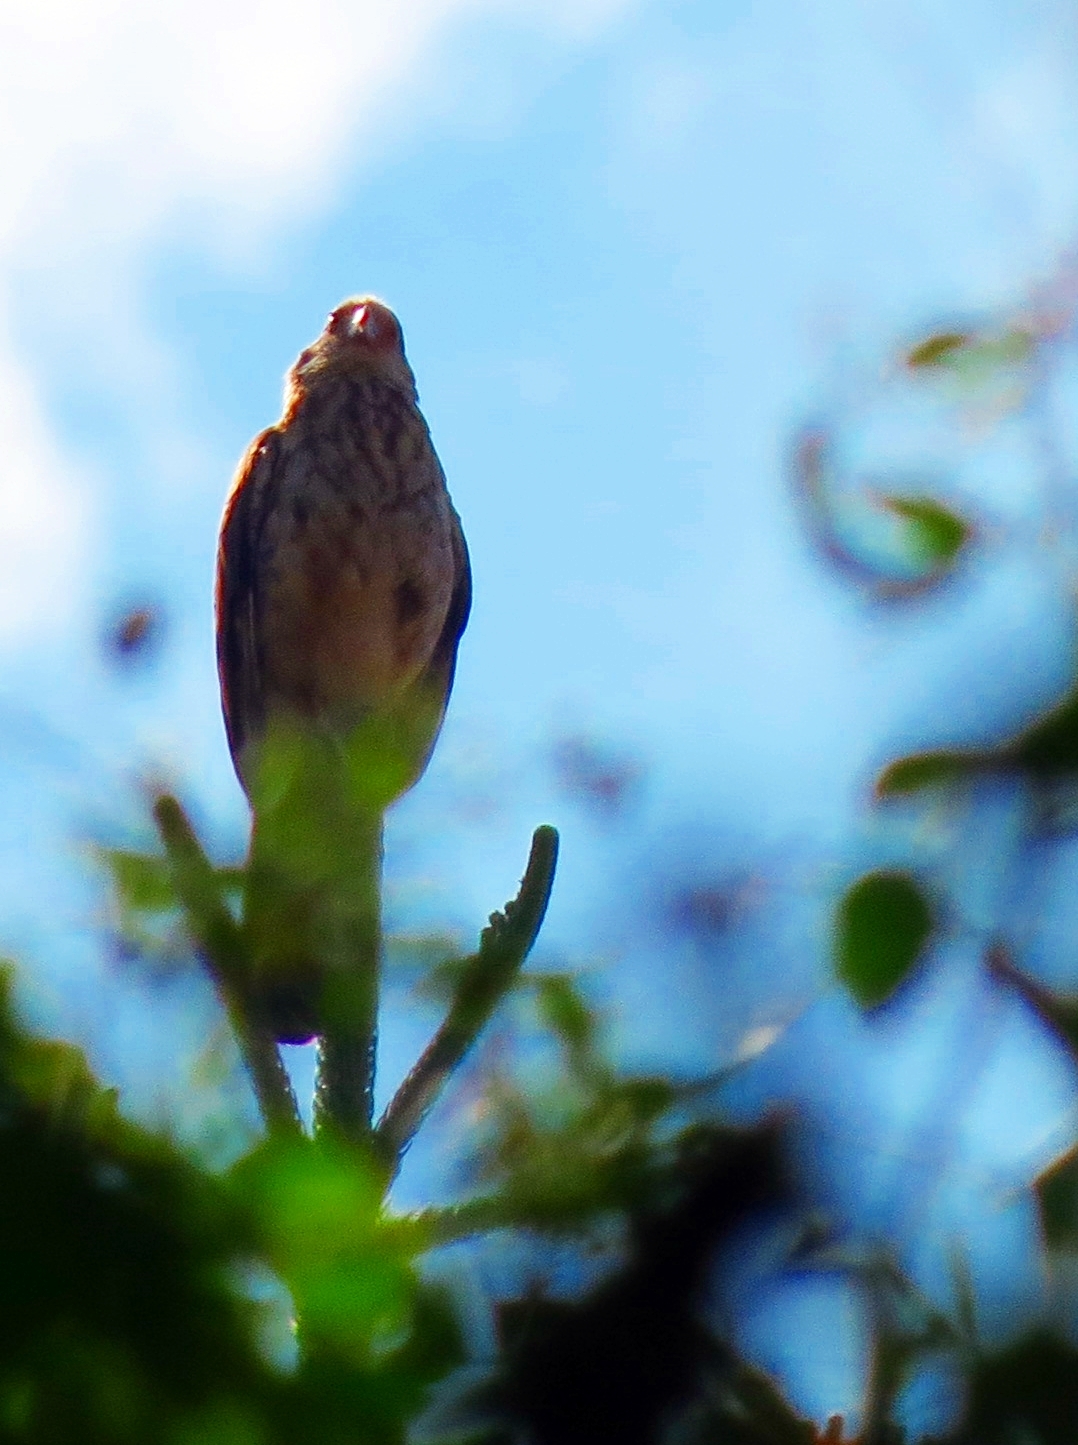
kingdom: Animalia
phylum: Chordata
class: Aves
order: Falconiformes
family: Falconidae
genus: Daptrius
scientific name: Daptrius
